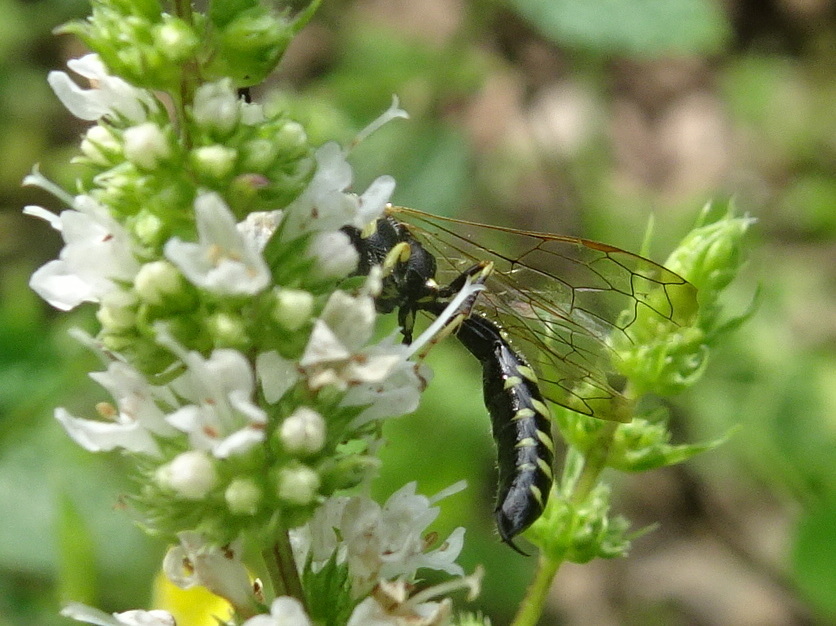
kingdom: Animalia
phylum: Arthropoda
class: Insecta
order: Hymenoptera
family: Tiphiidae
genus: Myzinum
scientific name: Myzinum
